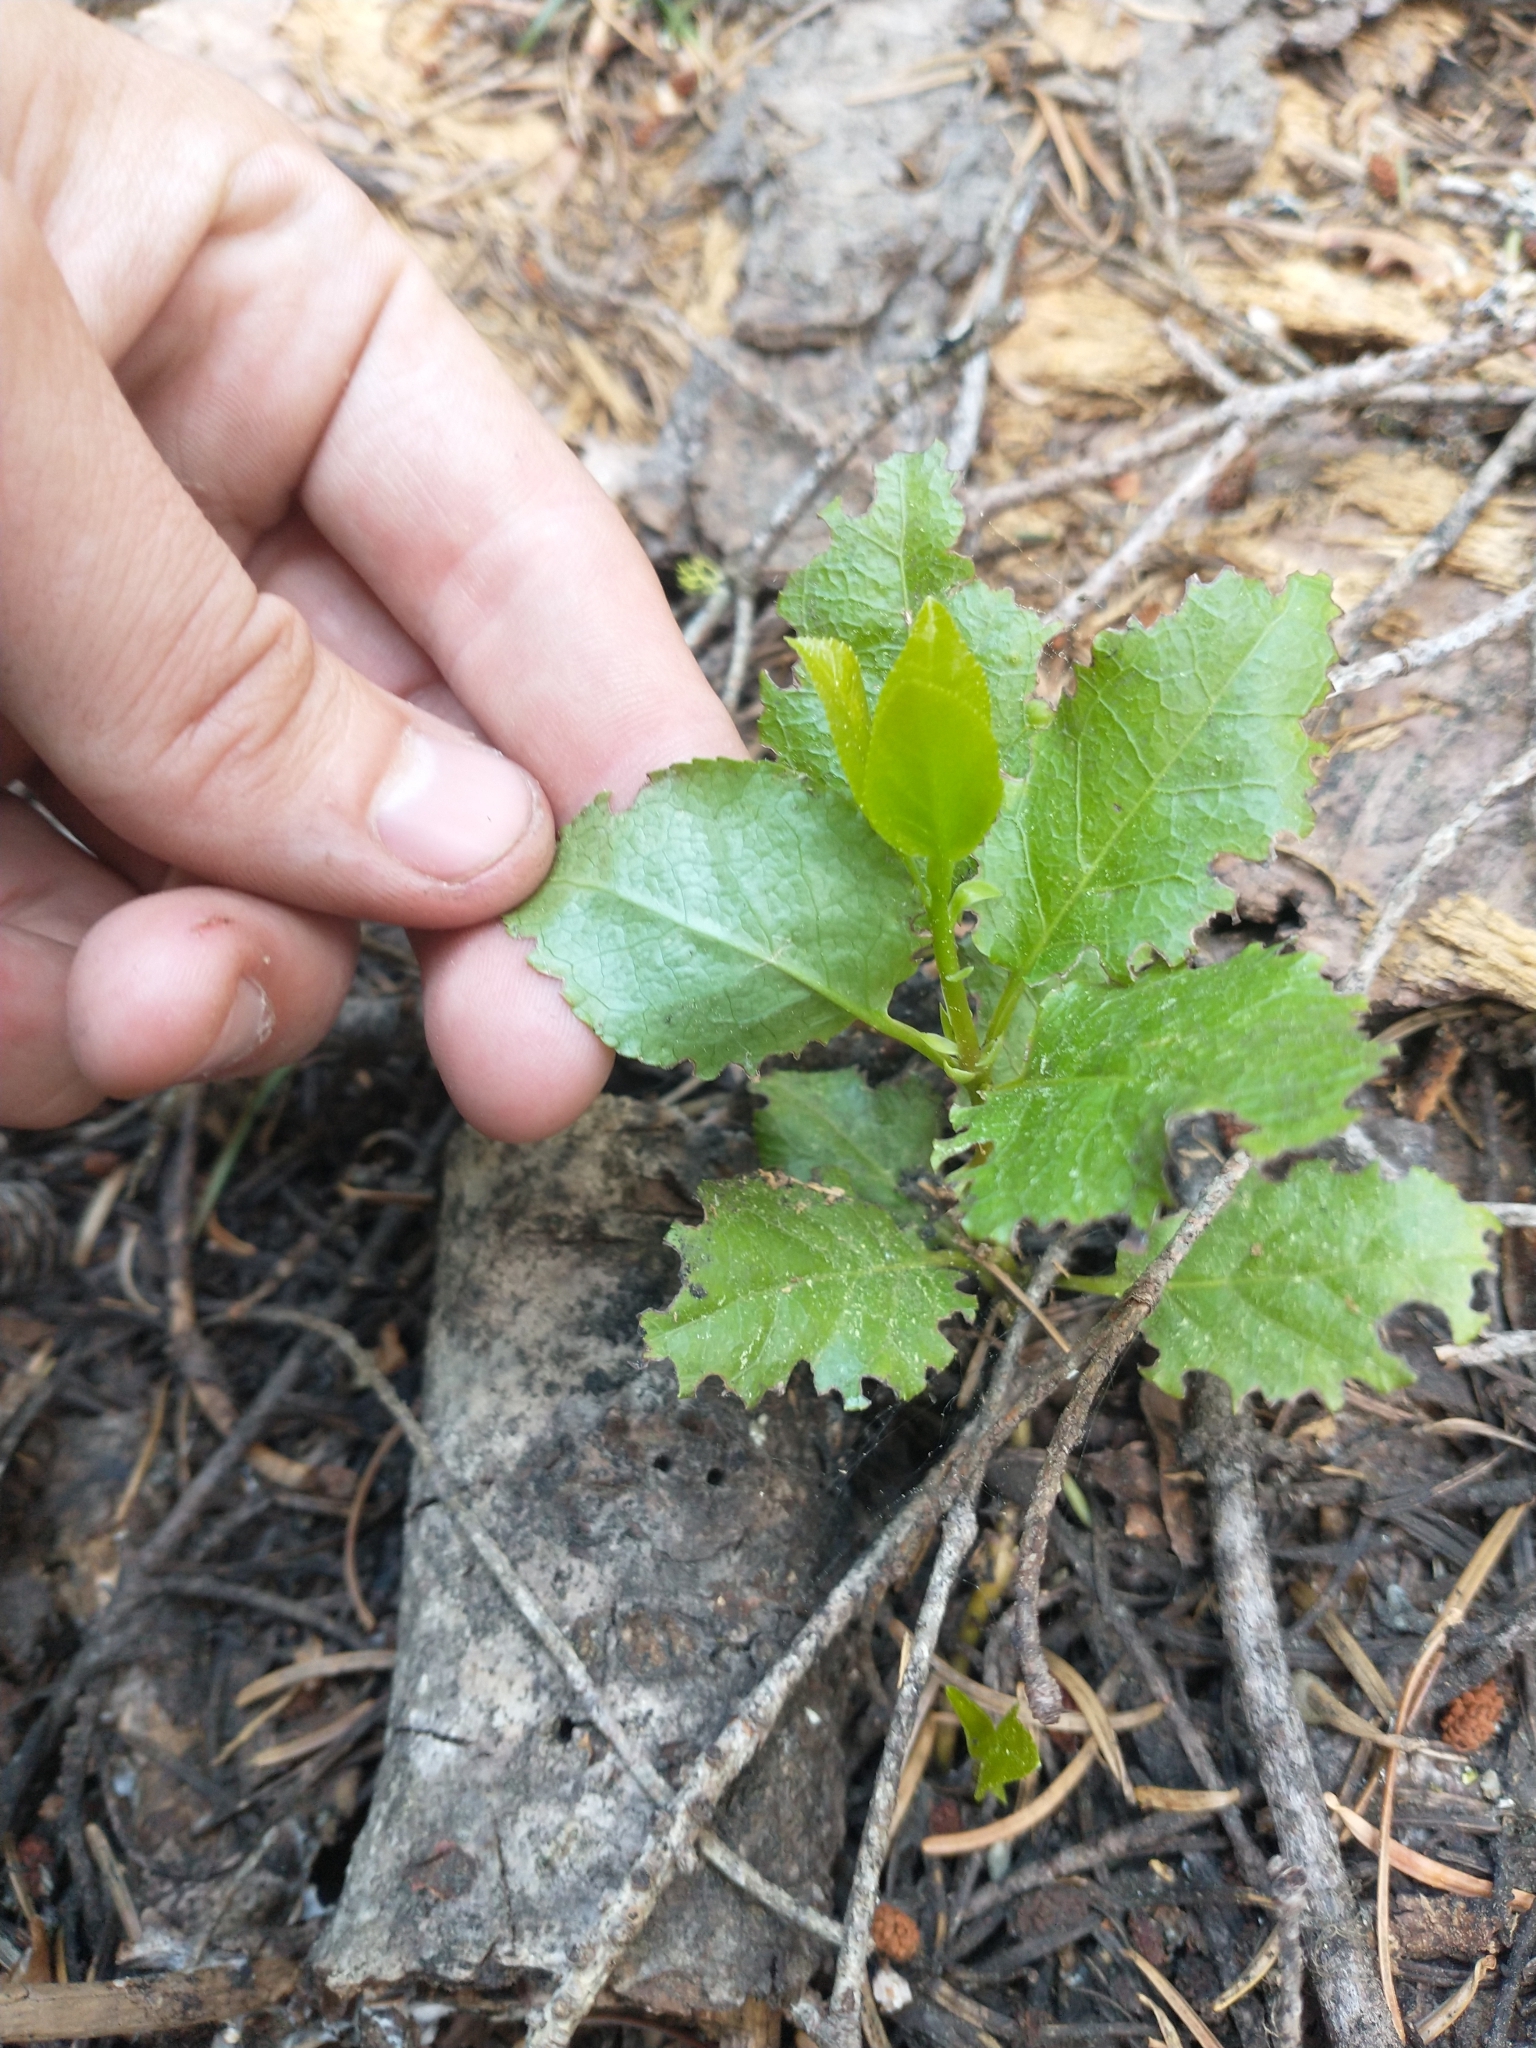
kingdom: Plantae
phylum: Tracheophyta
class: Magnoliopsida
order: Ericales
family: Ericaceae
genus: Orthilia
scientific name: Orthilia secunda
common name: One-sided orthilia
